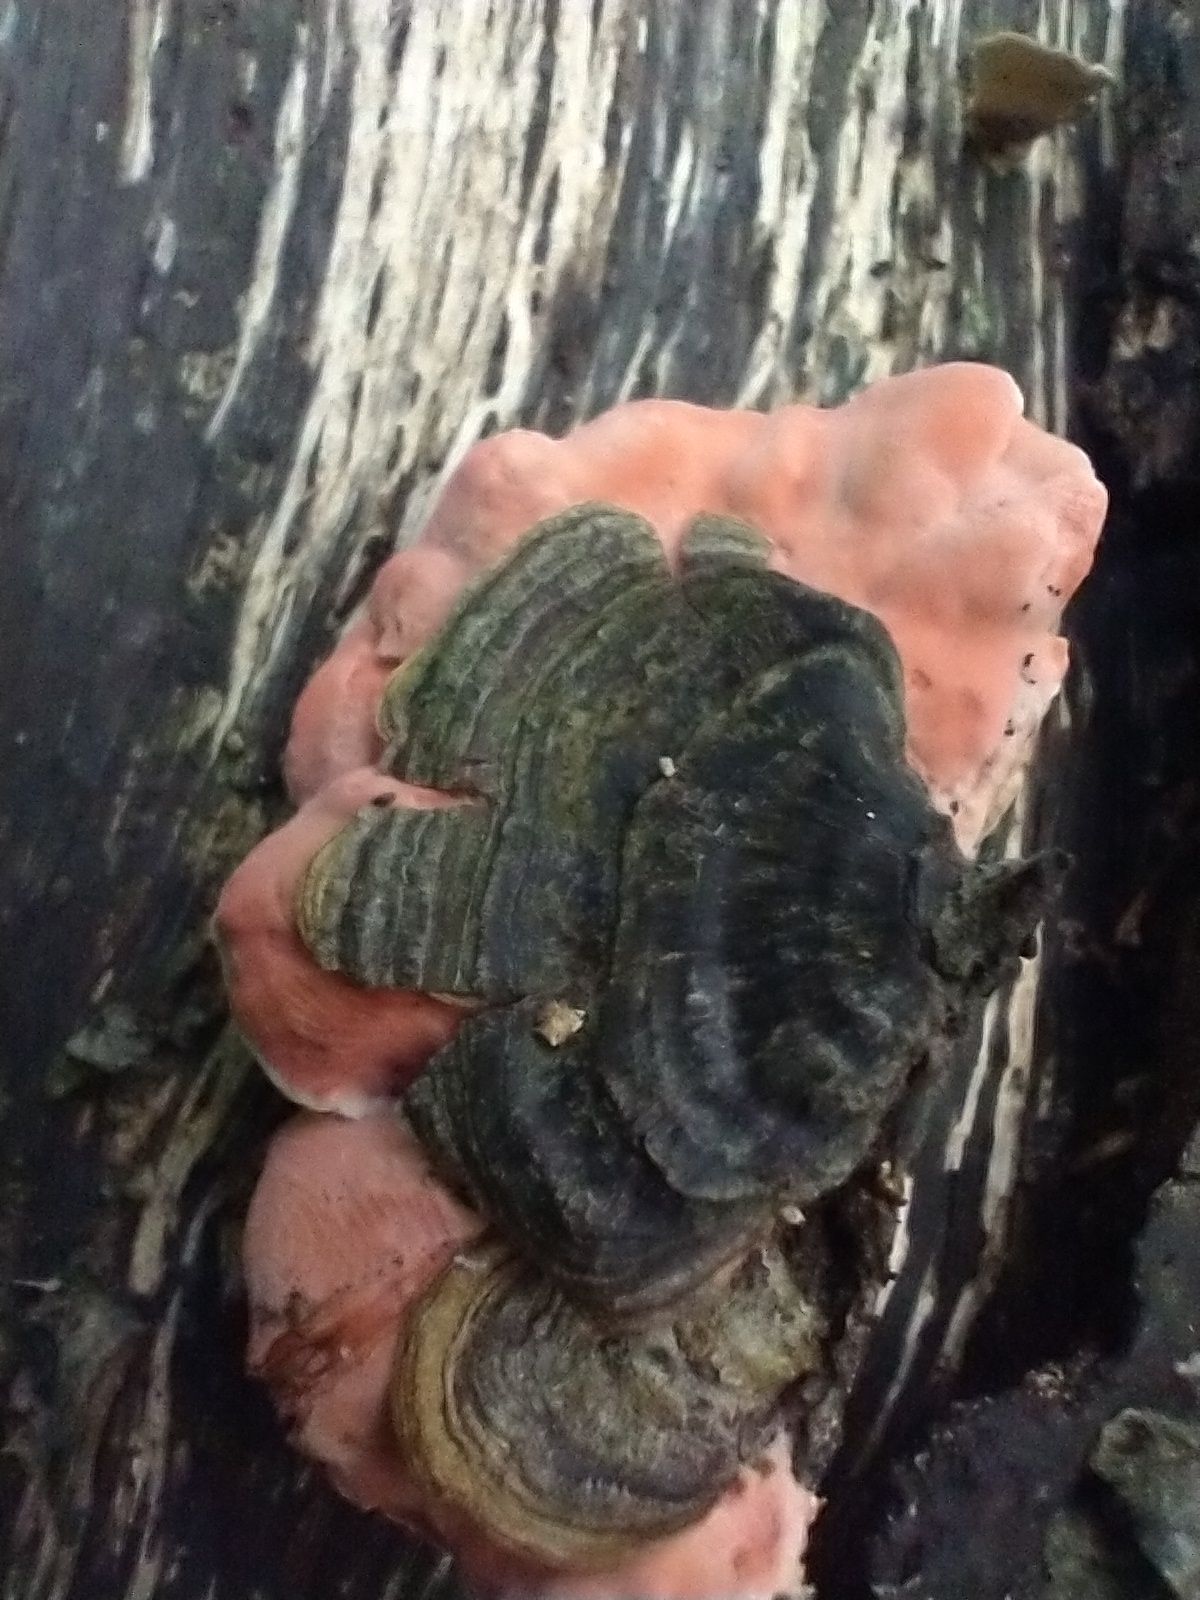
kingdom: Fungi
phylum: Basidiomycota
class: Agaricomycetes
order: Polyporales
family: Irpicaceae
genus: Byssomerulius
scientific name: Byssomerulius incarnatus
